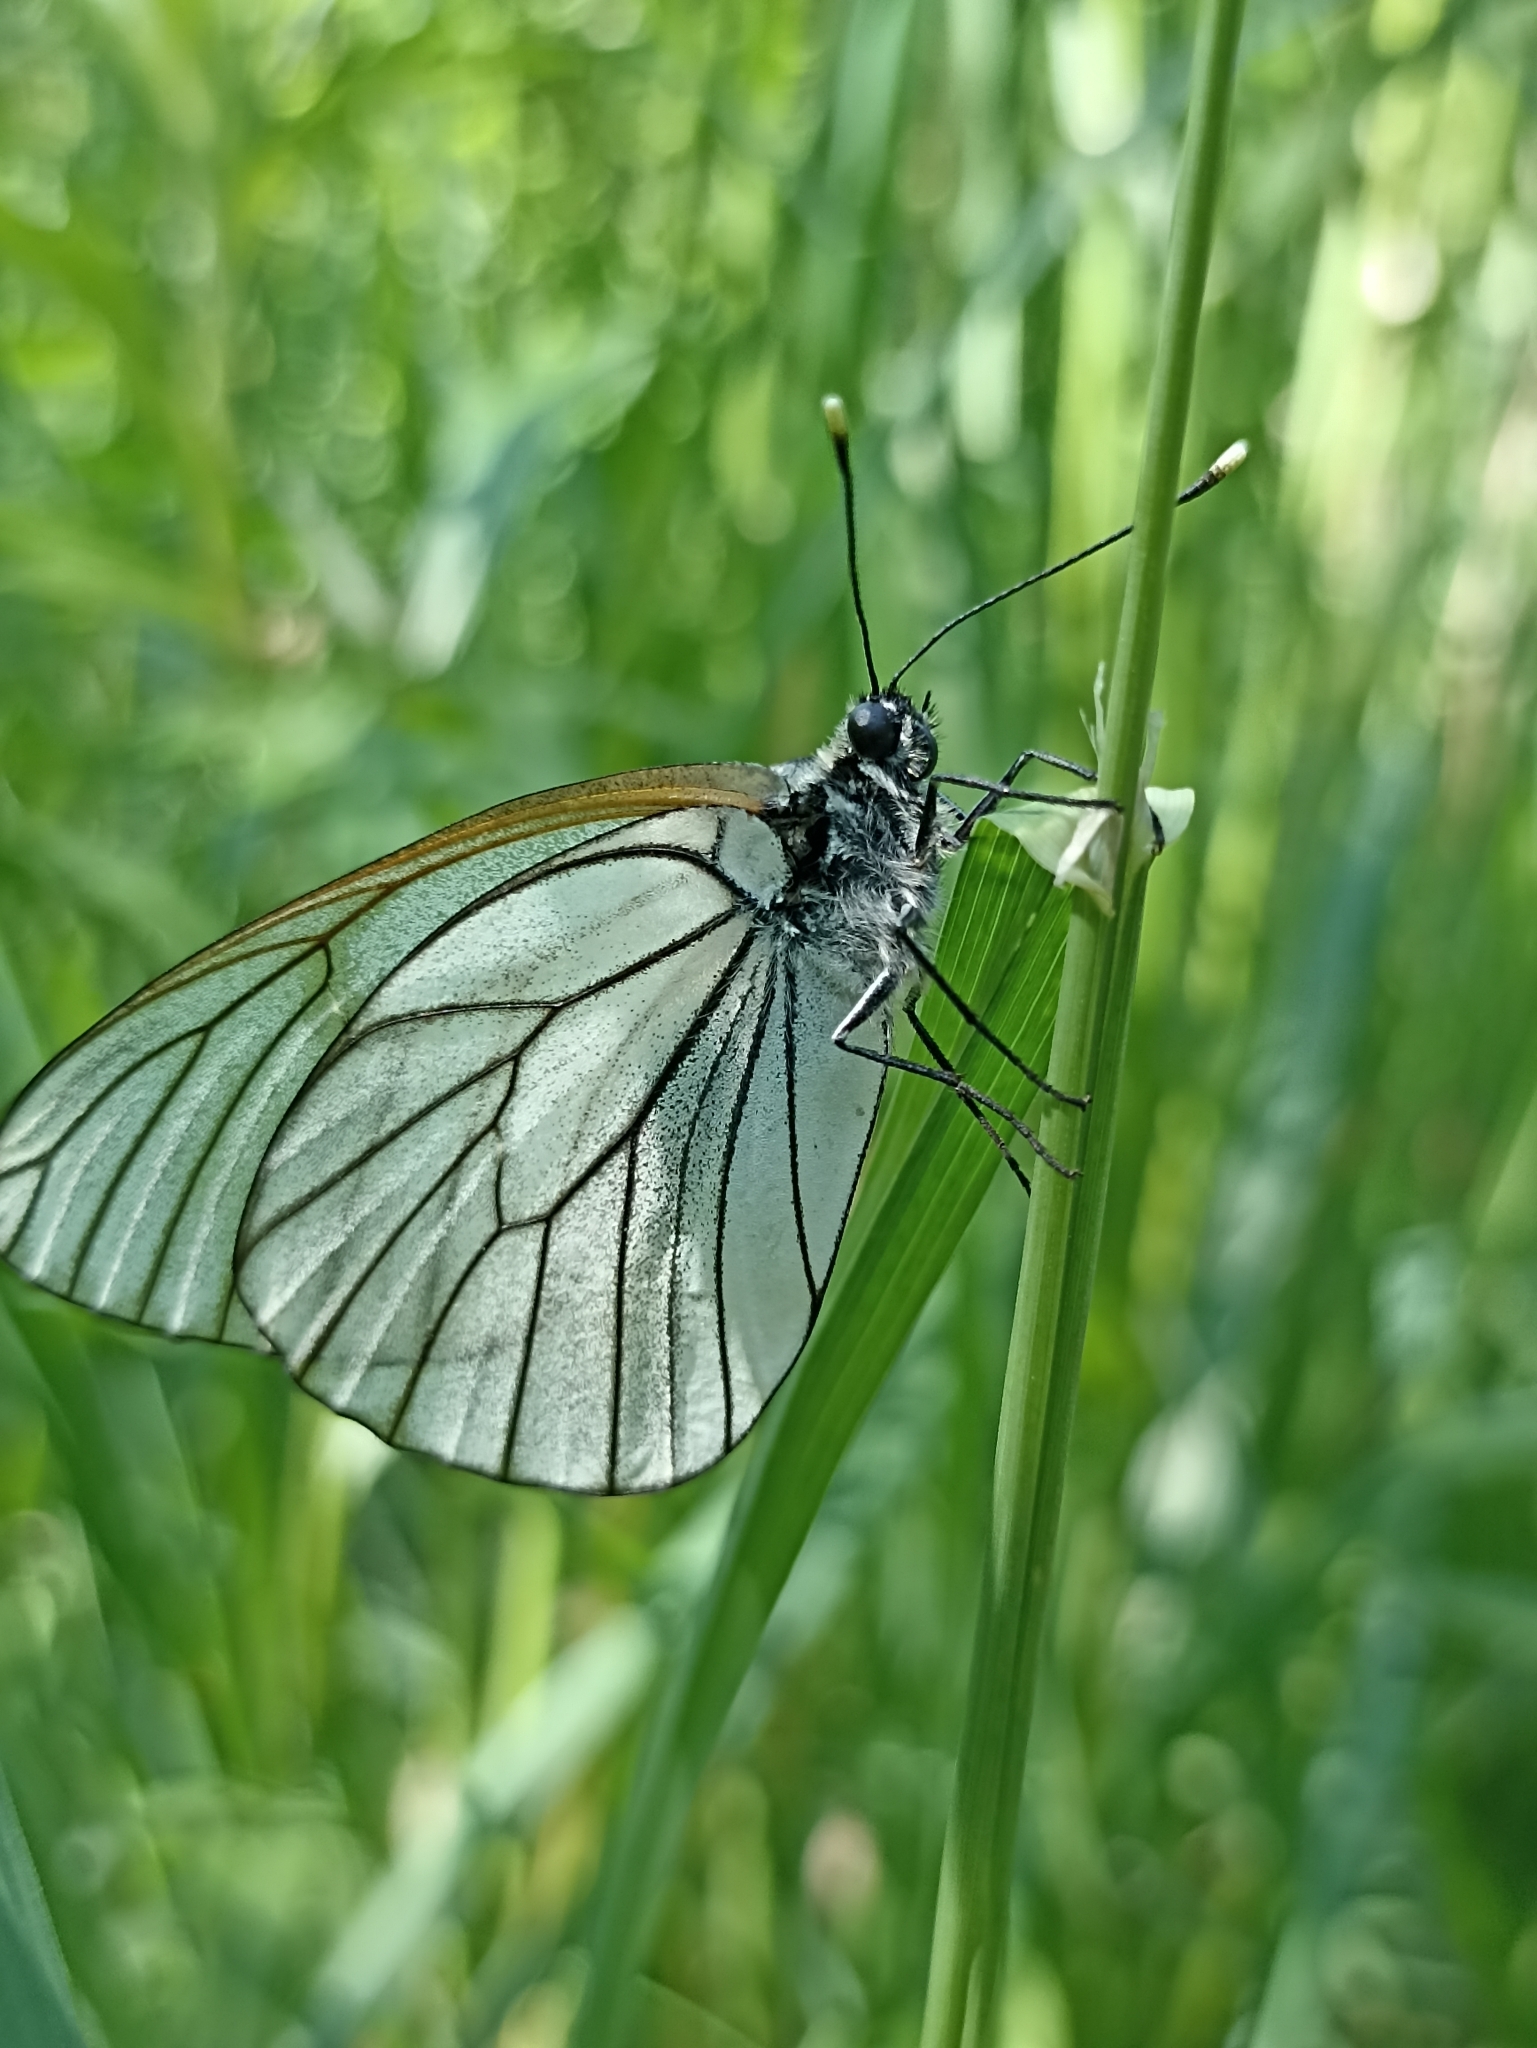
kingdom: Animalia
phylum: Arthropoda
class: Insecta
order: Lepidoptera
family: Pieridae
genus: Aporia
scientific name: Aporia crataegi
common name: Black-veined white
